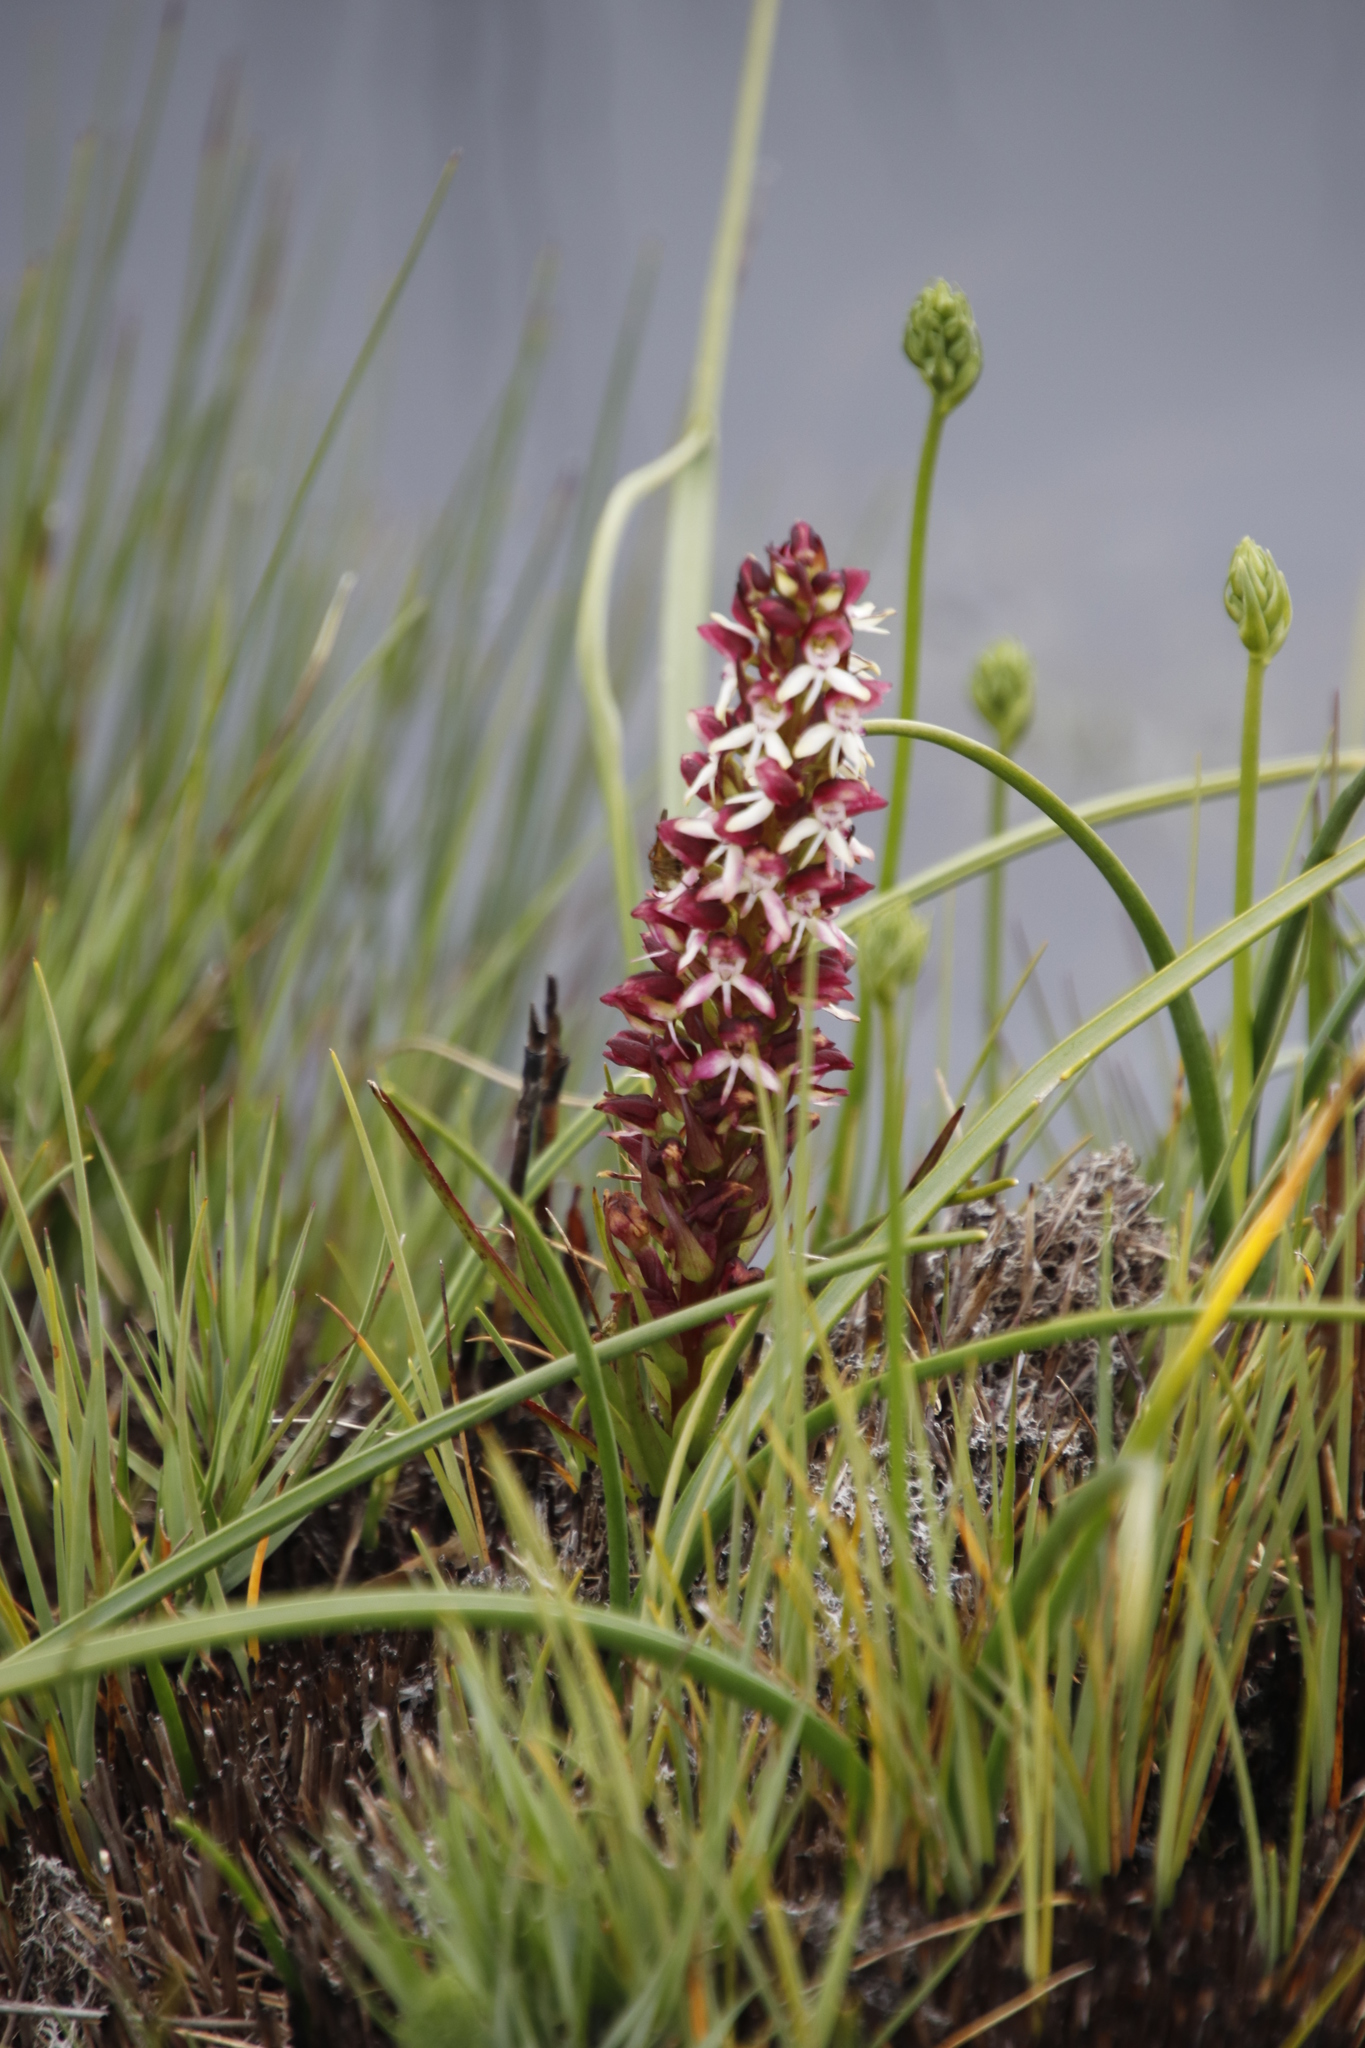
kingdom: Plantae
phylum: Tracheophyta
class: Liliopsida
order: Asparagales
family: Orchidaceae
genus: Disa
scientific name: Disa albomagentea
